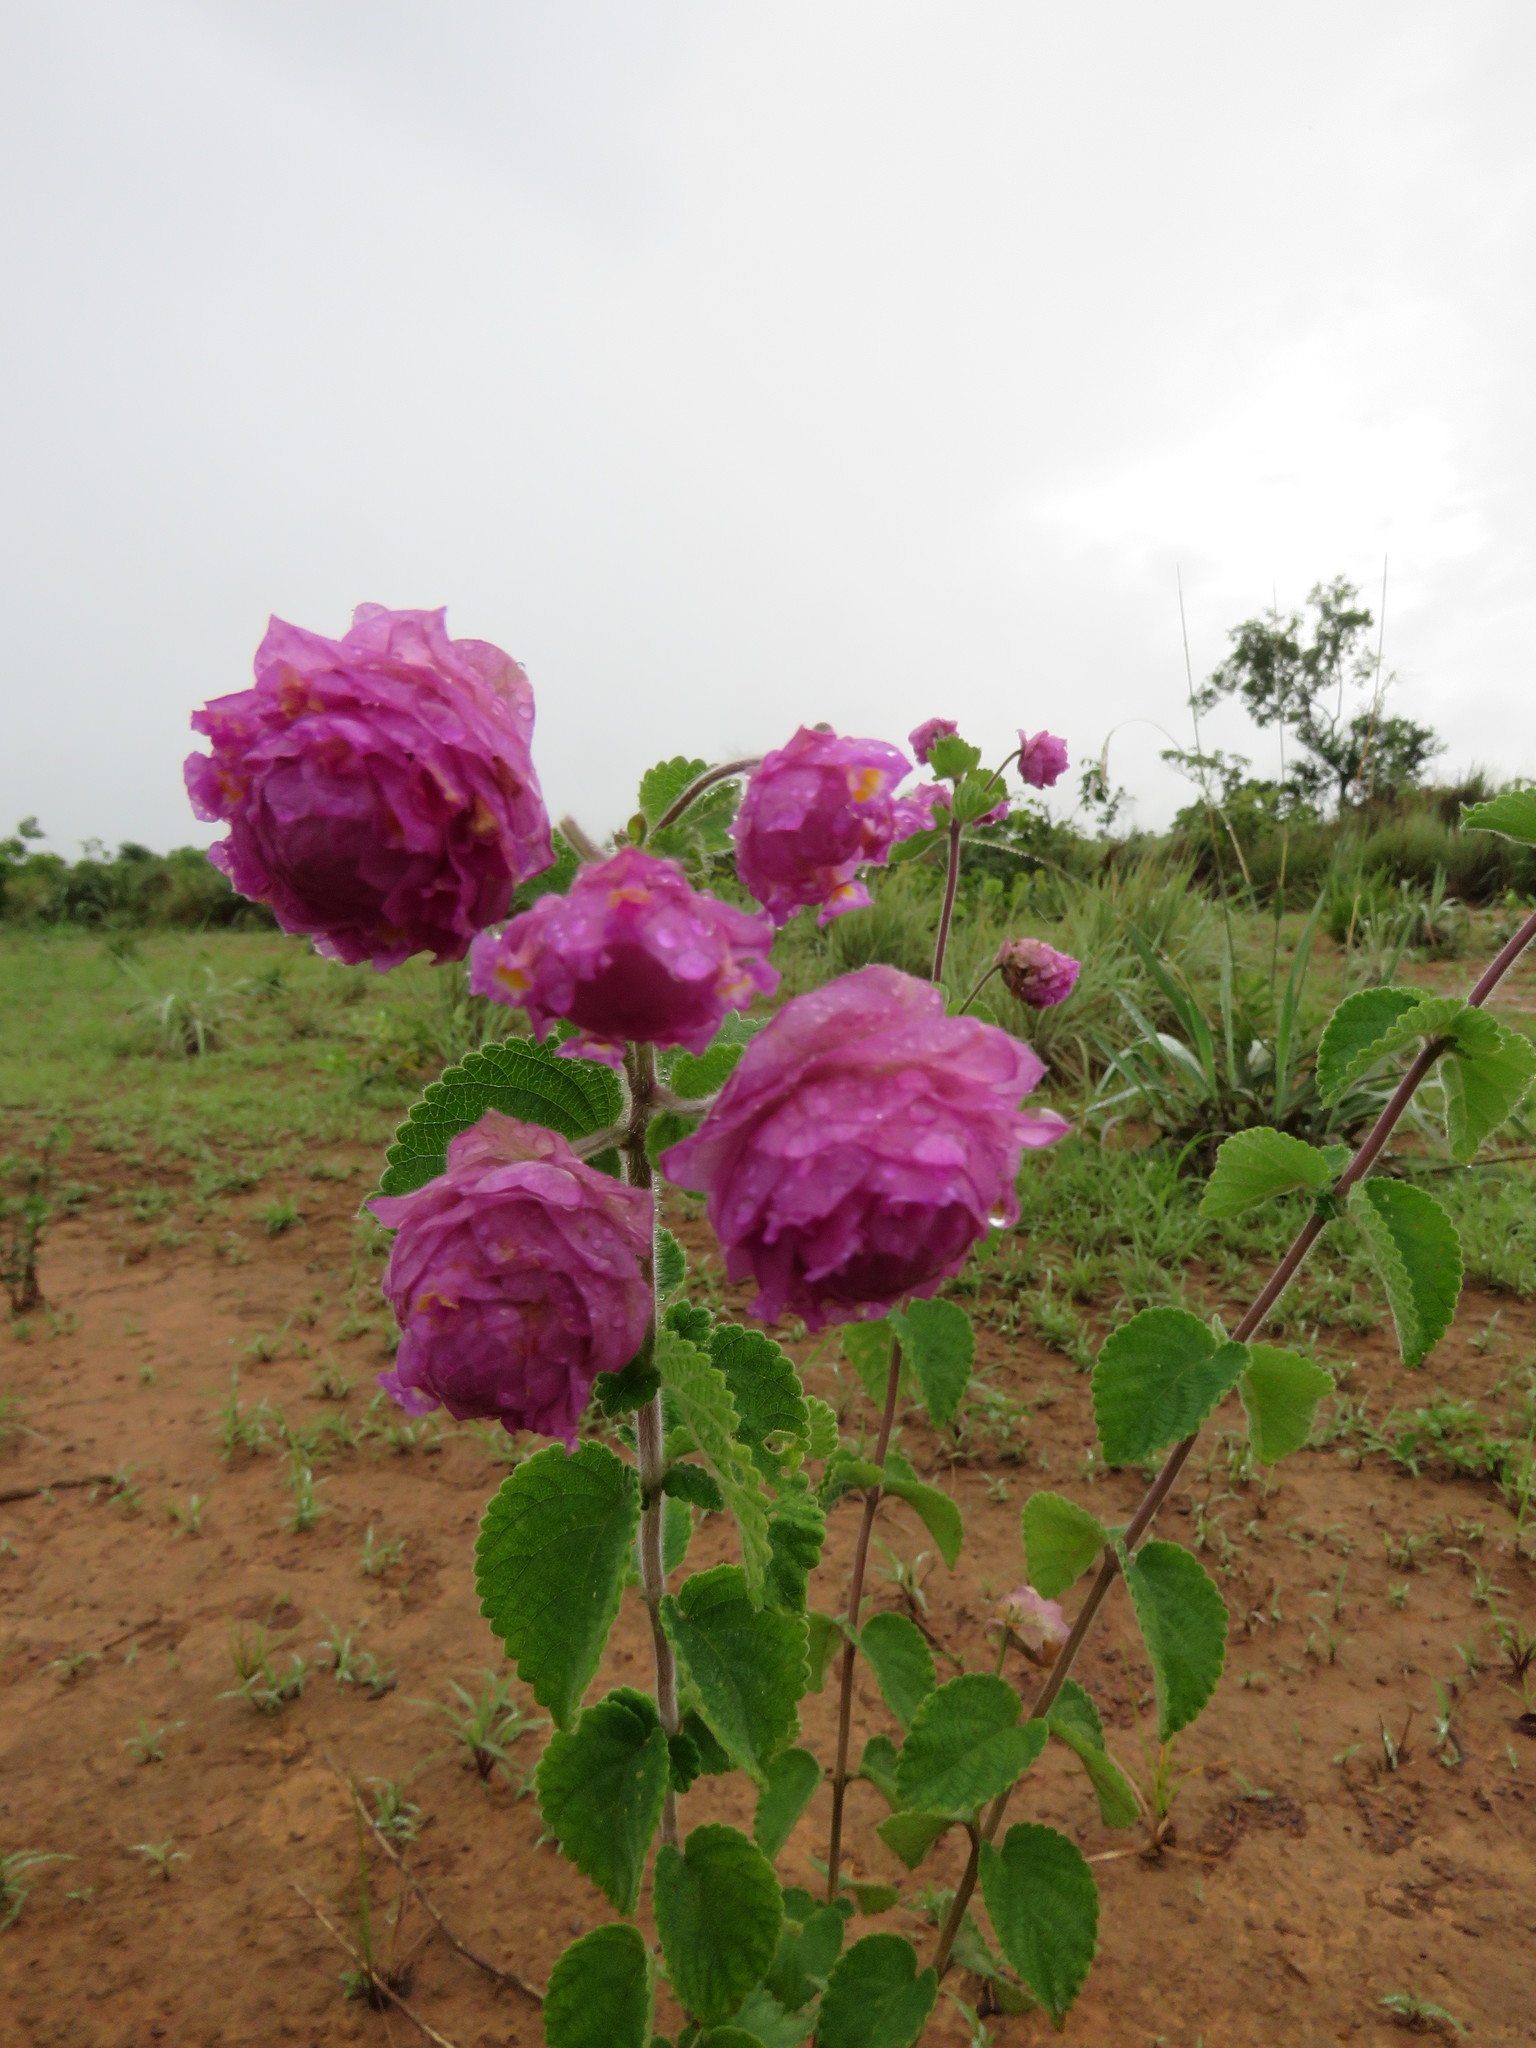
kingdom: Plantae
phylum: Tracheophyta
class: Magnoliopsida
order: Lamiales
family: Verbenaceae
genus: Lippia
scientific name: Lippia lupulina
